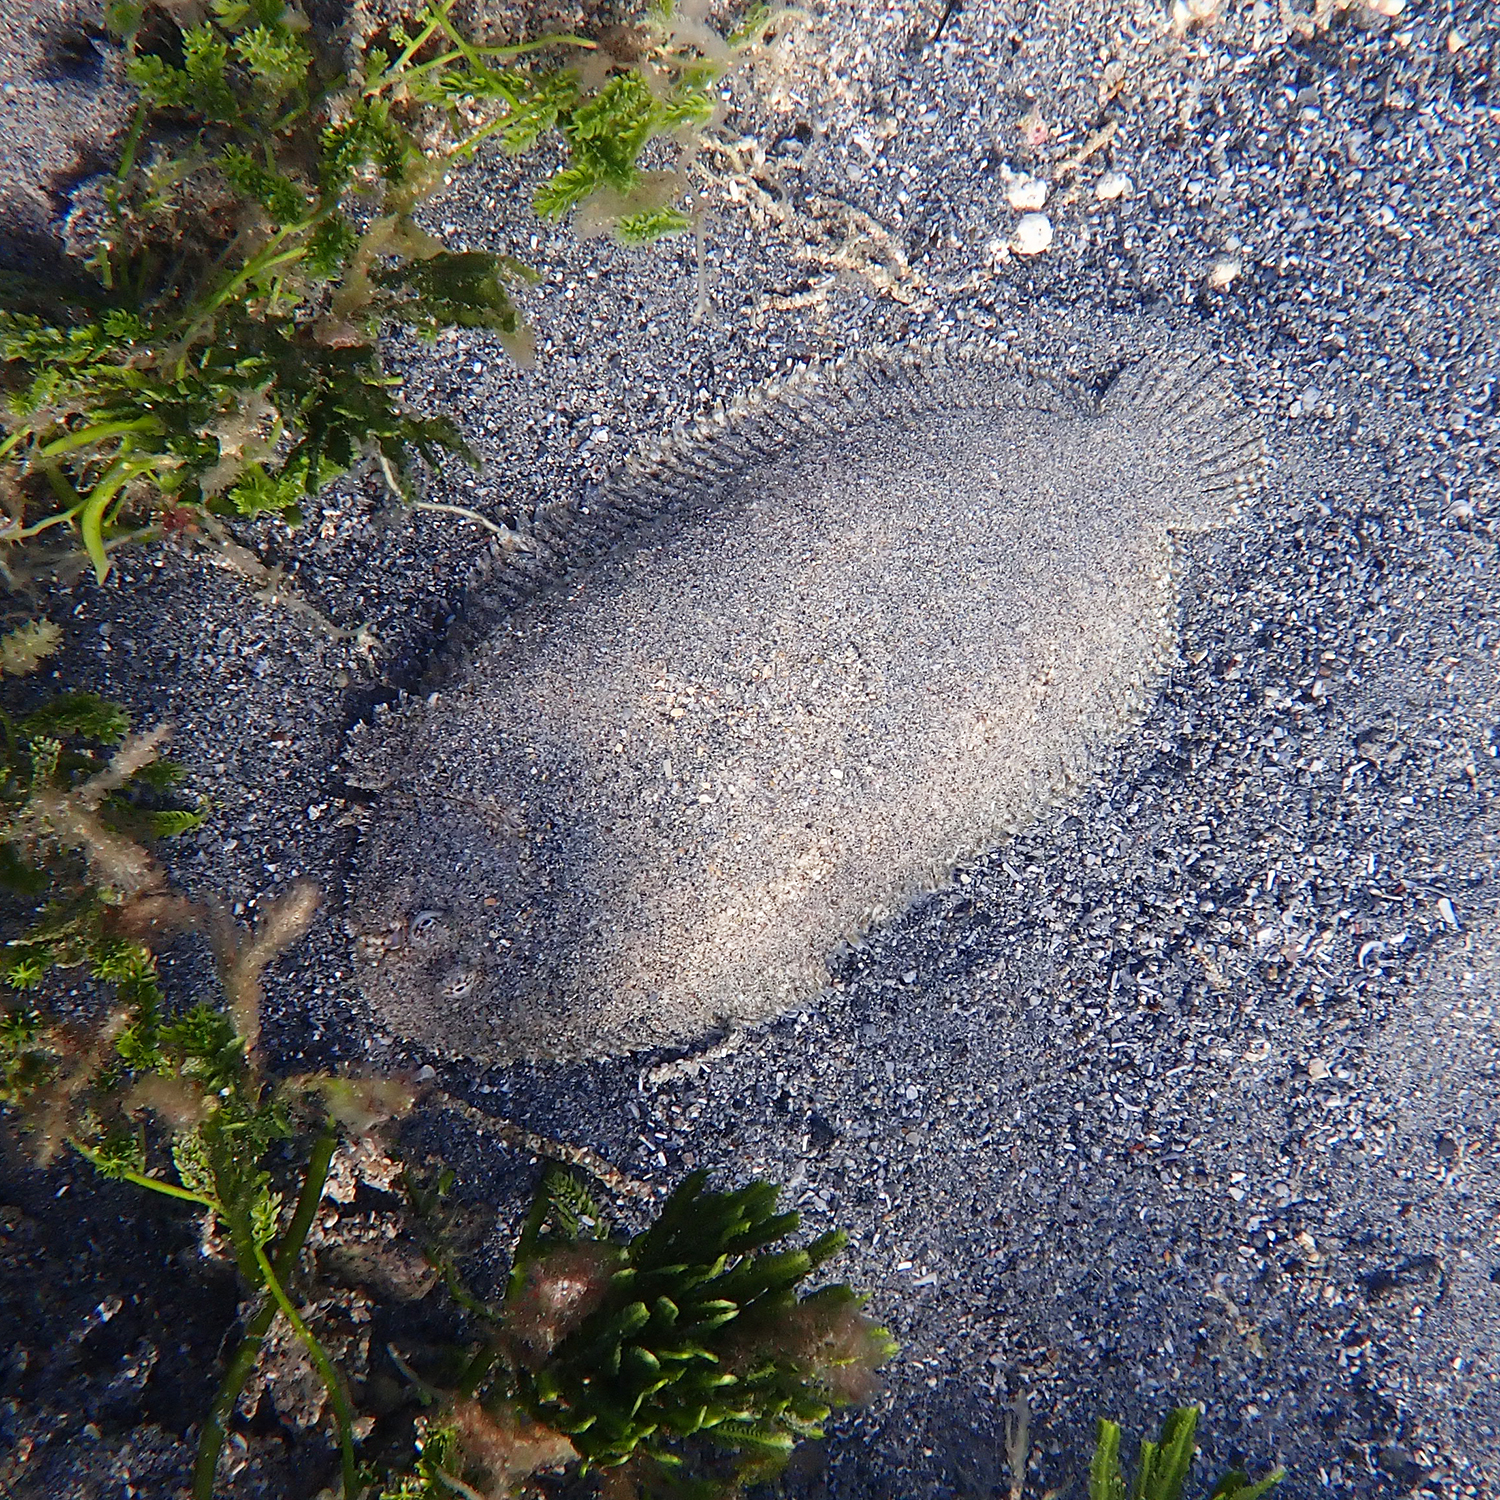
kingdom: Animalia
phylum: Chordata
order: Pleuronectiformes
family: Soleidae
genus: Aseraggodes
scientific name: Aseraggodes bahamondei
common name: Bahamonde's sole
